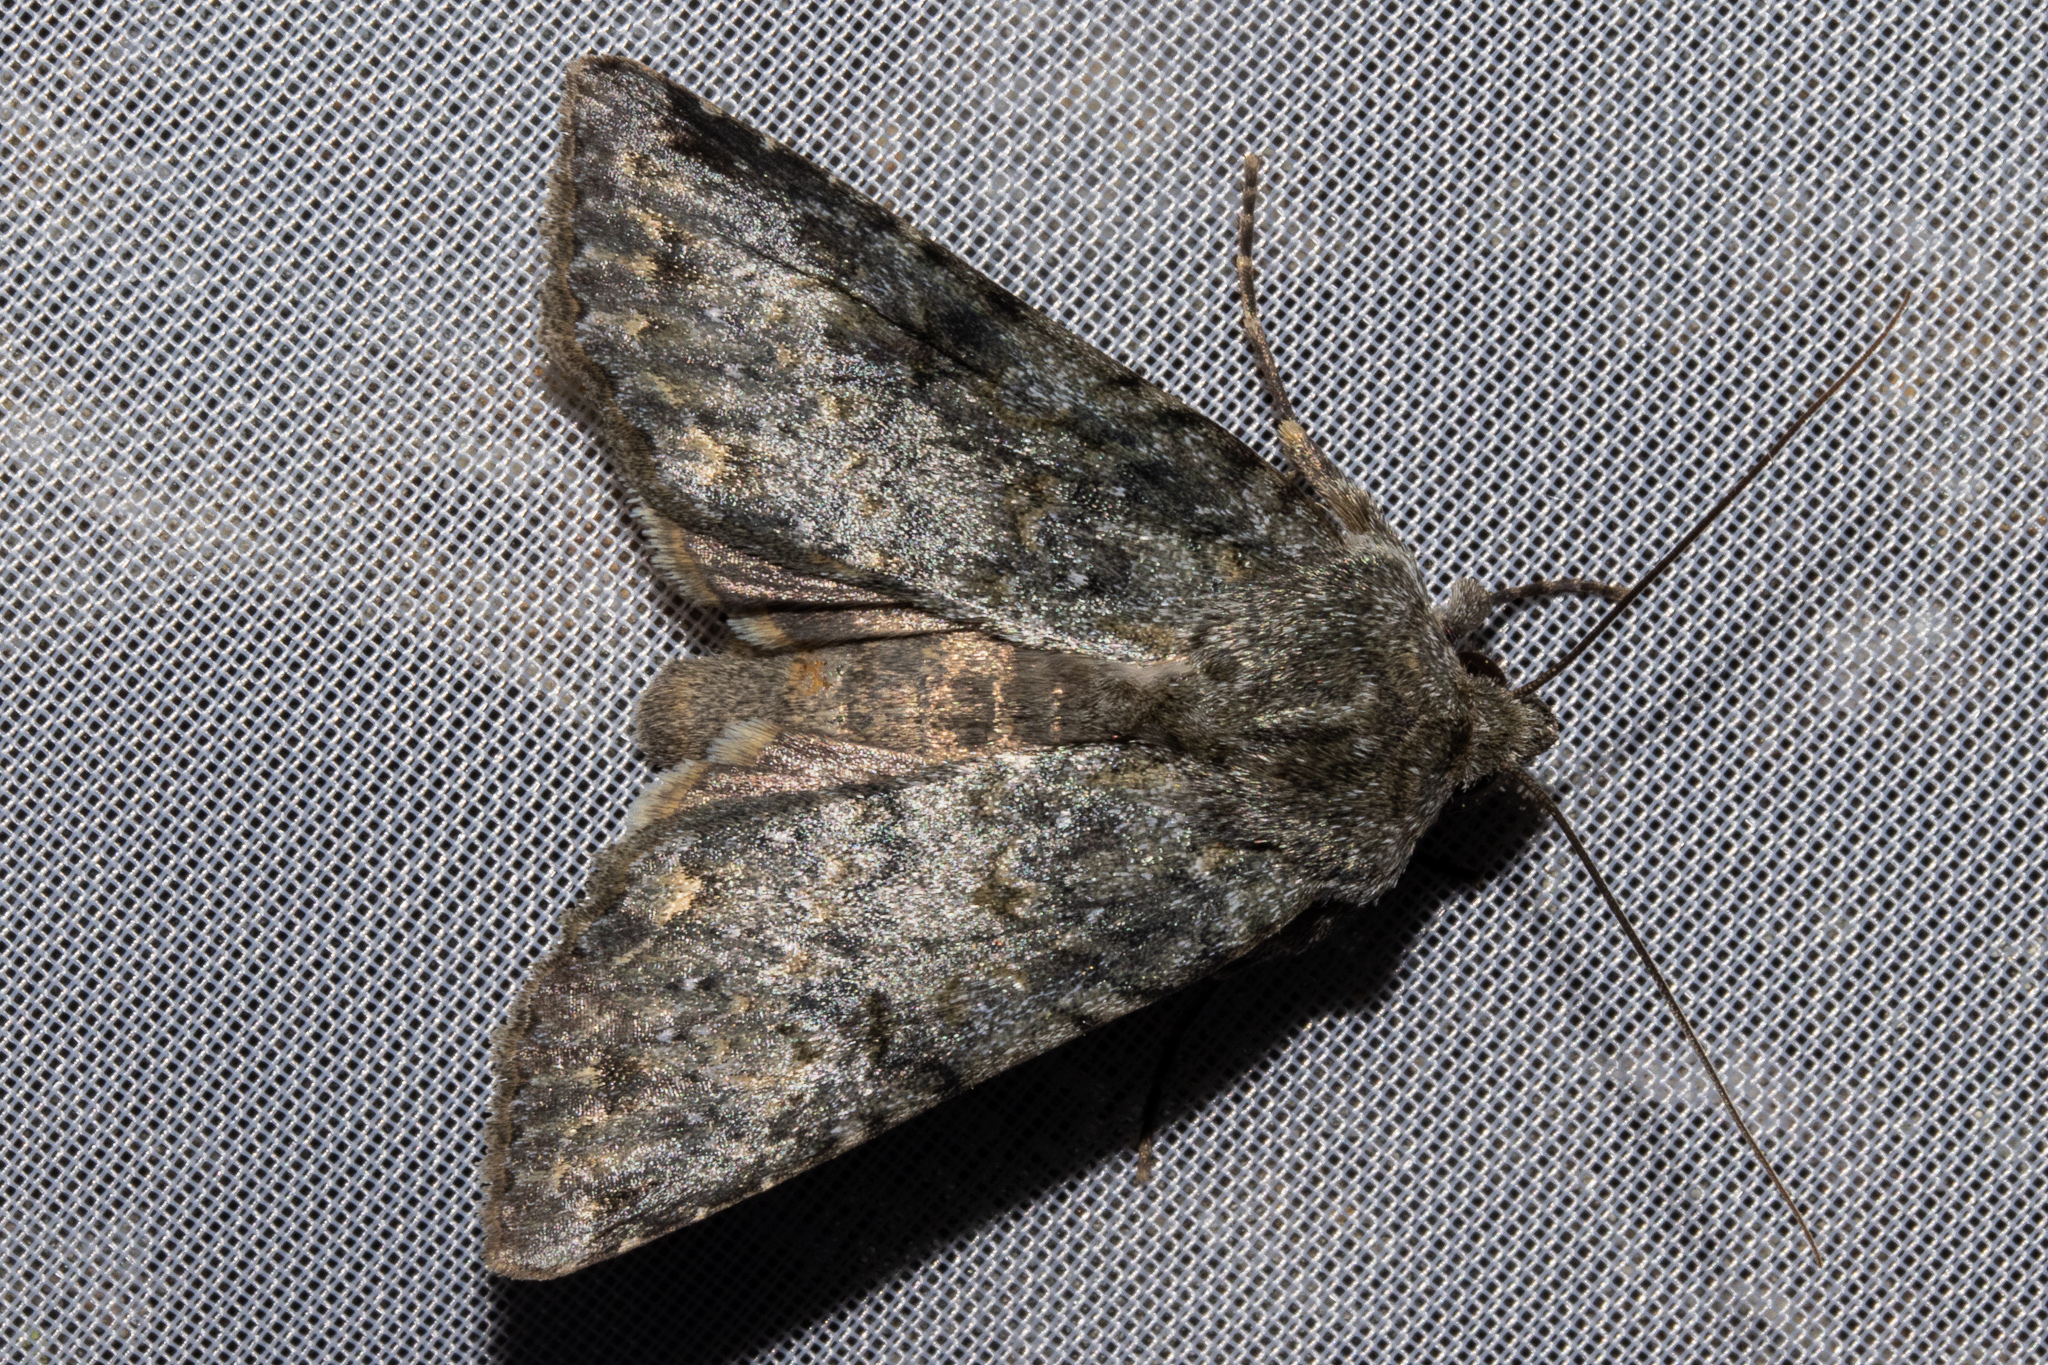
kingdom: Animalia
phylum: Arthropoda
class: Insecta
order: Lepidoptera
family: Noctuidae
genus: Ichneutica
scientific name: Ichneutica
